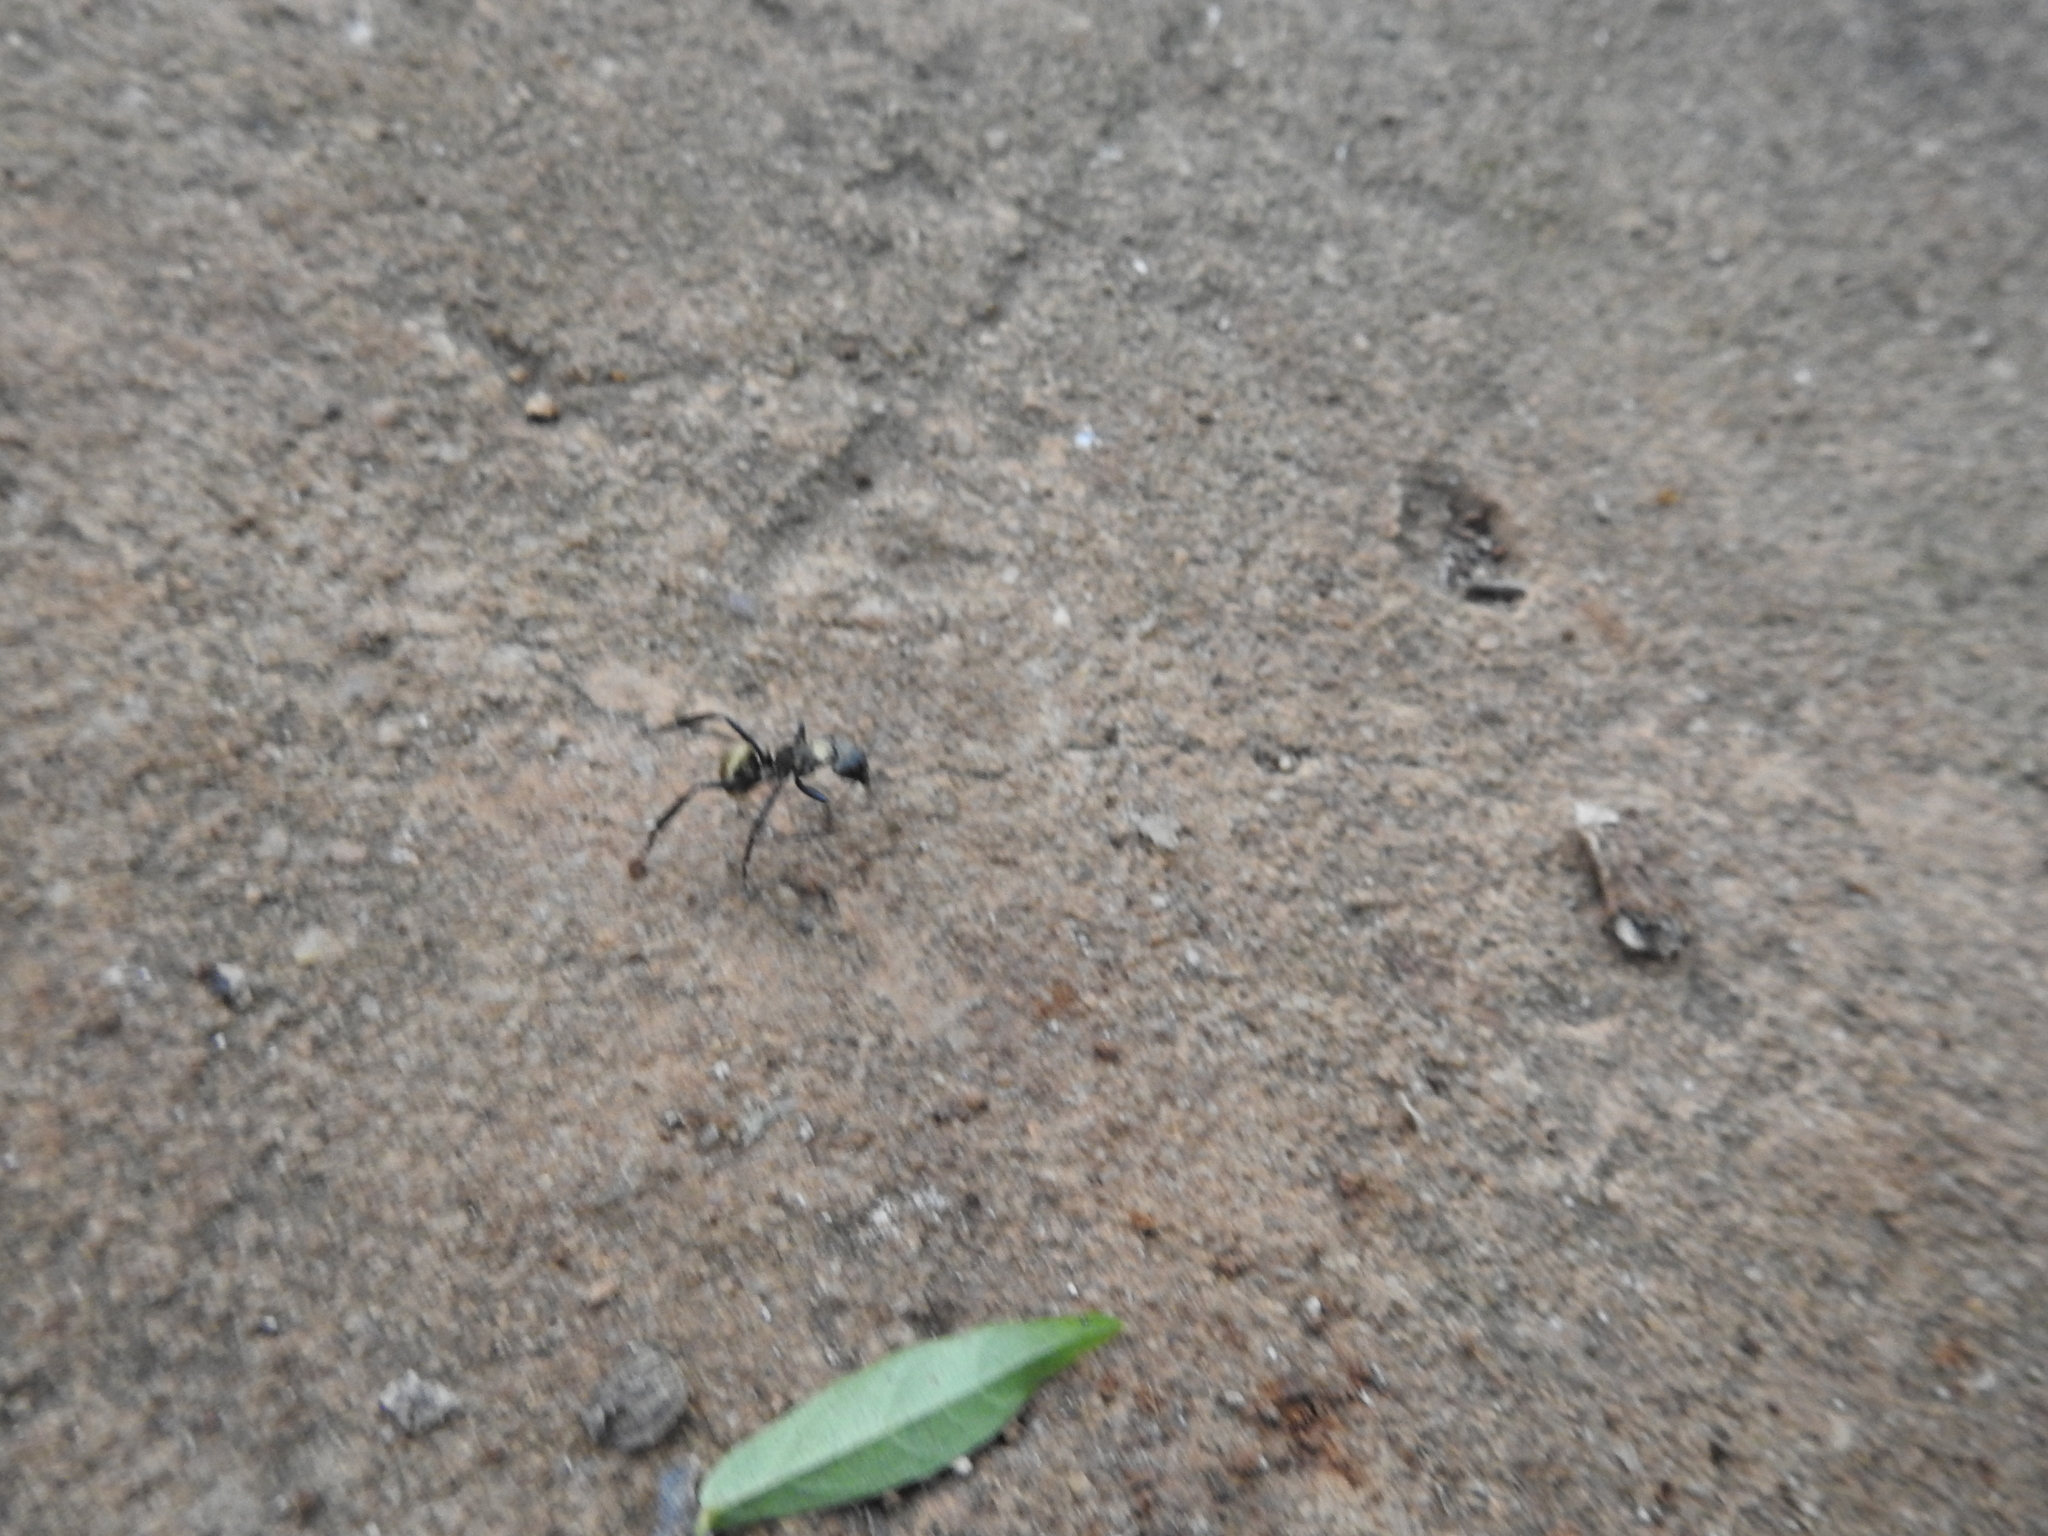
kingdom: Animalia
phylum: Arthropoda
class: Insecta
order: Hymenoptera
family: Formicidae
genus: Camponotus
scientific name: Camponotus sericeiventris
